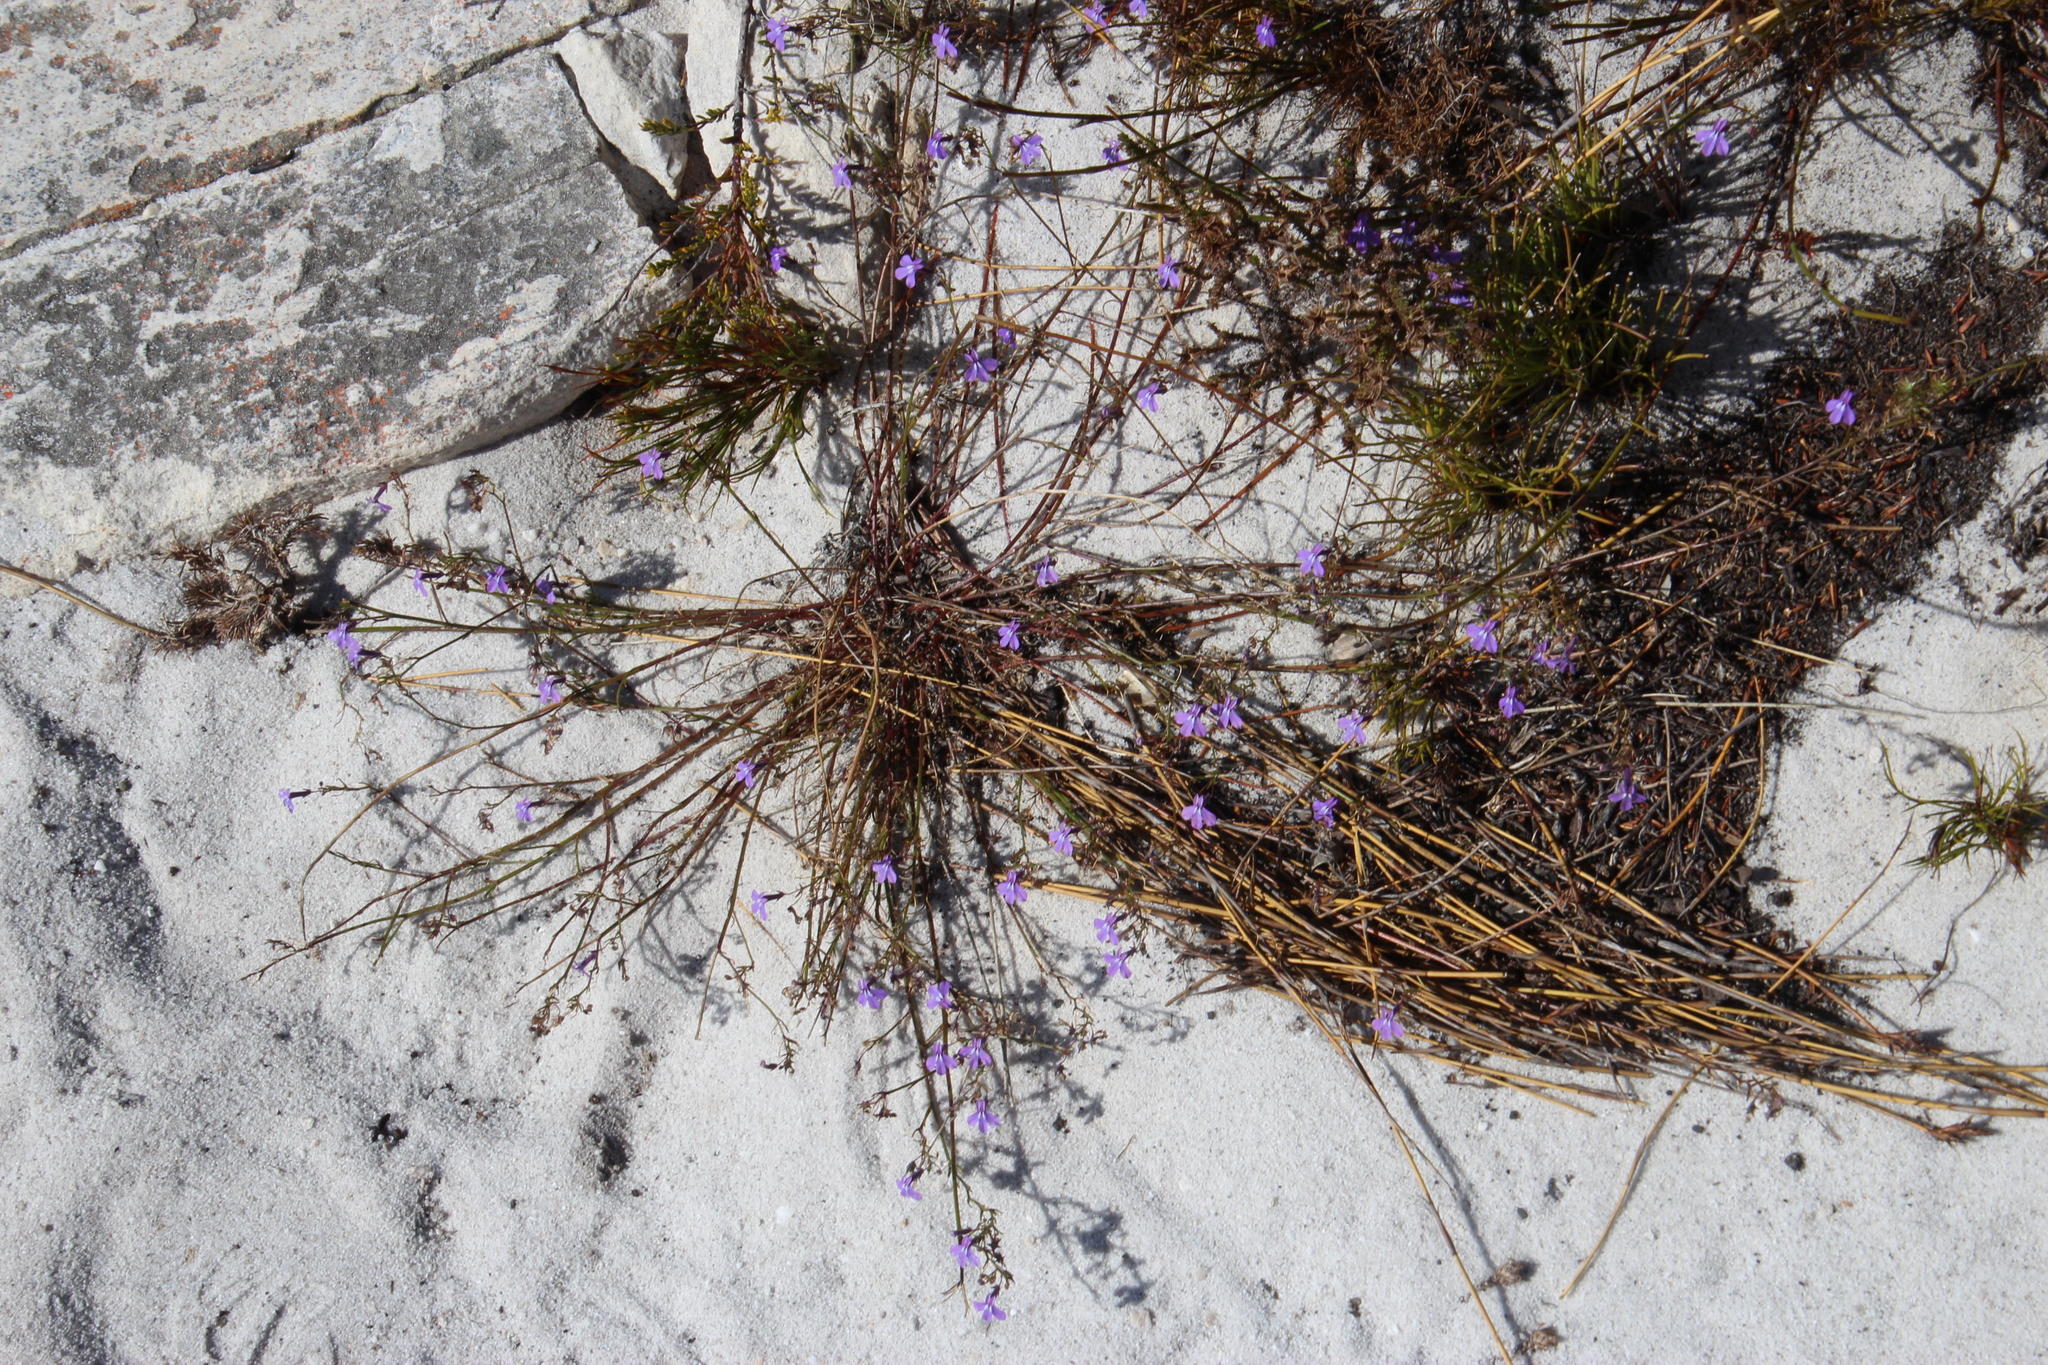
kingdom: Plantae
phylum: Tracheophyta
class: Magnoliopsida
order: Asterales
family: Campanulaceae
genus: Lobelia
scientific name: Lobelia setacea
